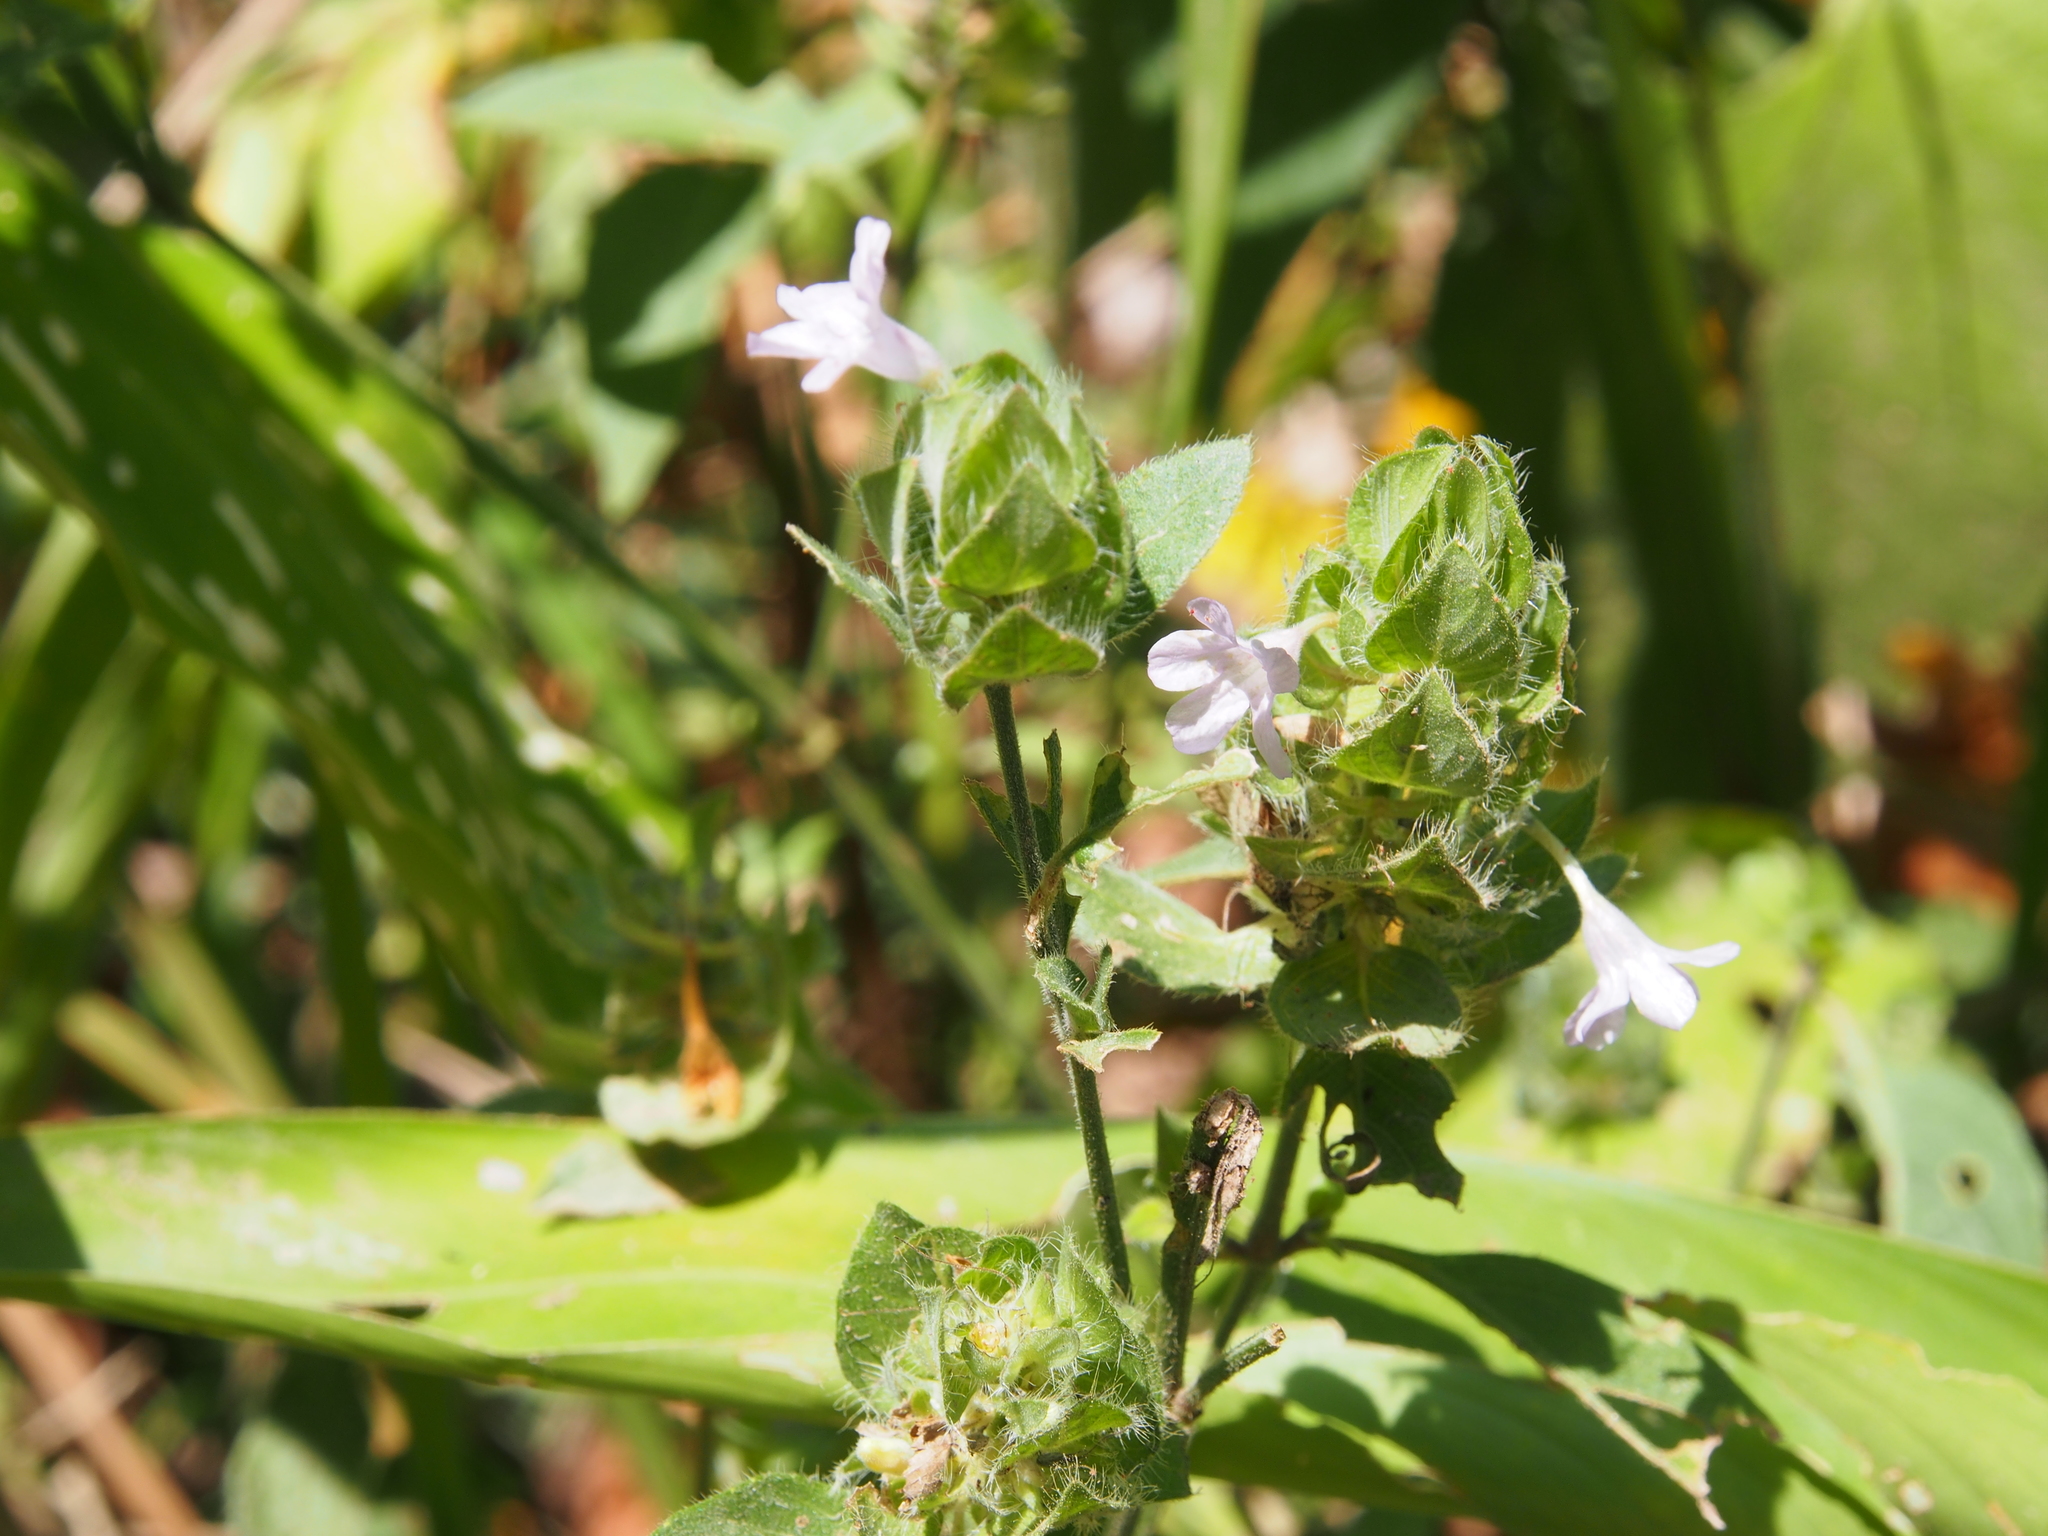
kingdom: Plantae
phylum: Tracheophyta
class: Magnoliopsida
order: Lamiales
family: Acanthaceae
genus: Ruellia
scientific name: Ruellia blechum
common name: Browne's blechum
